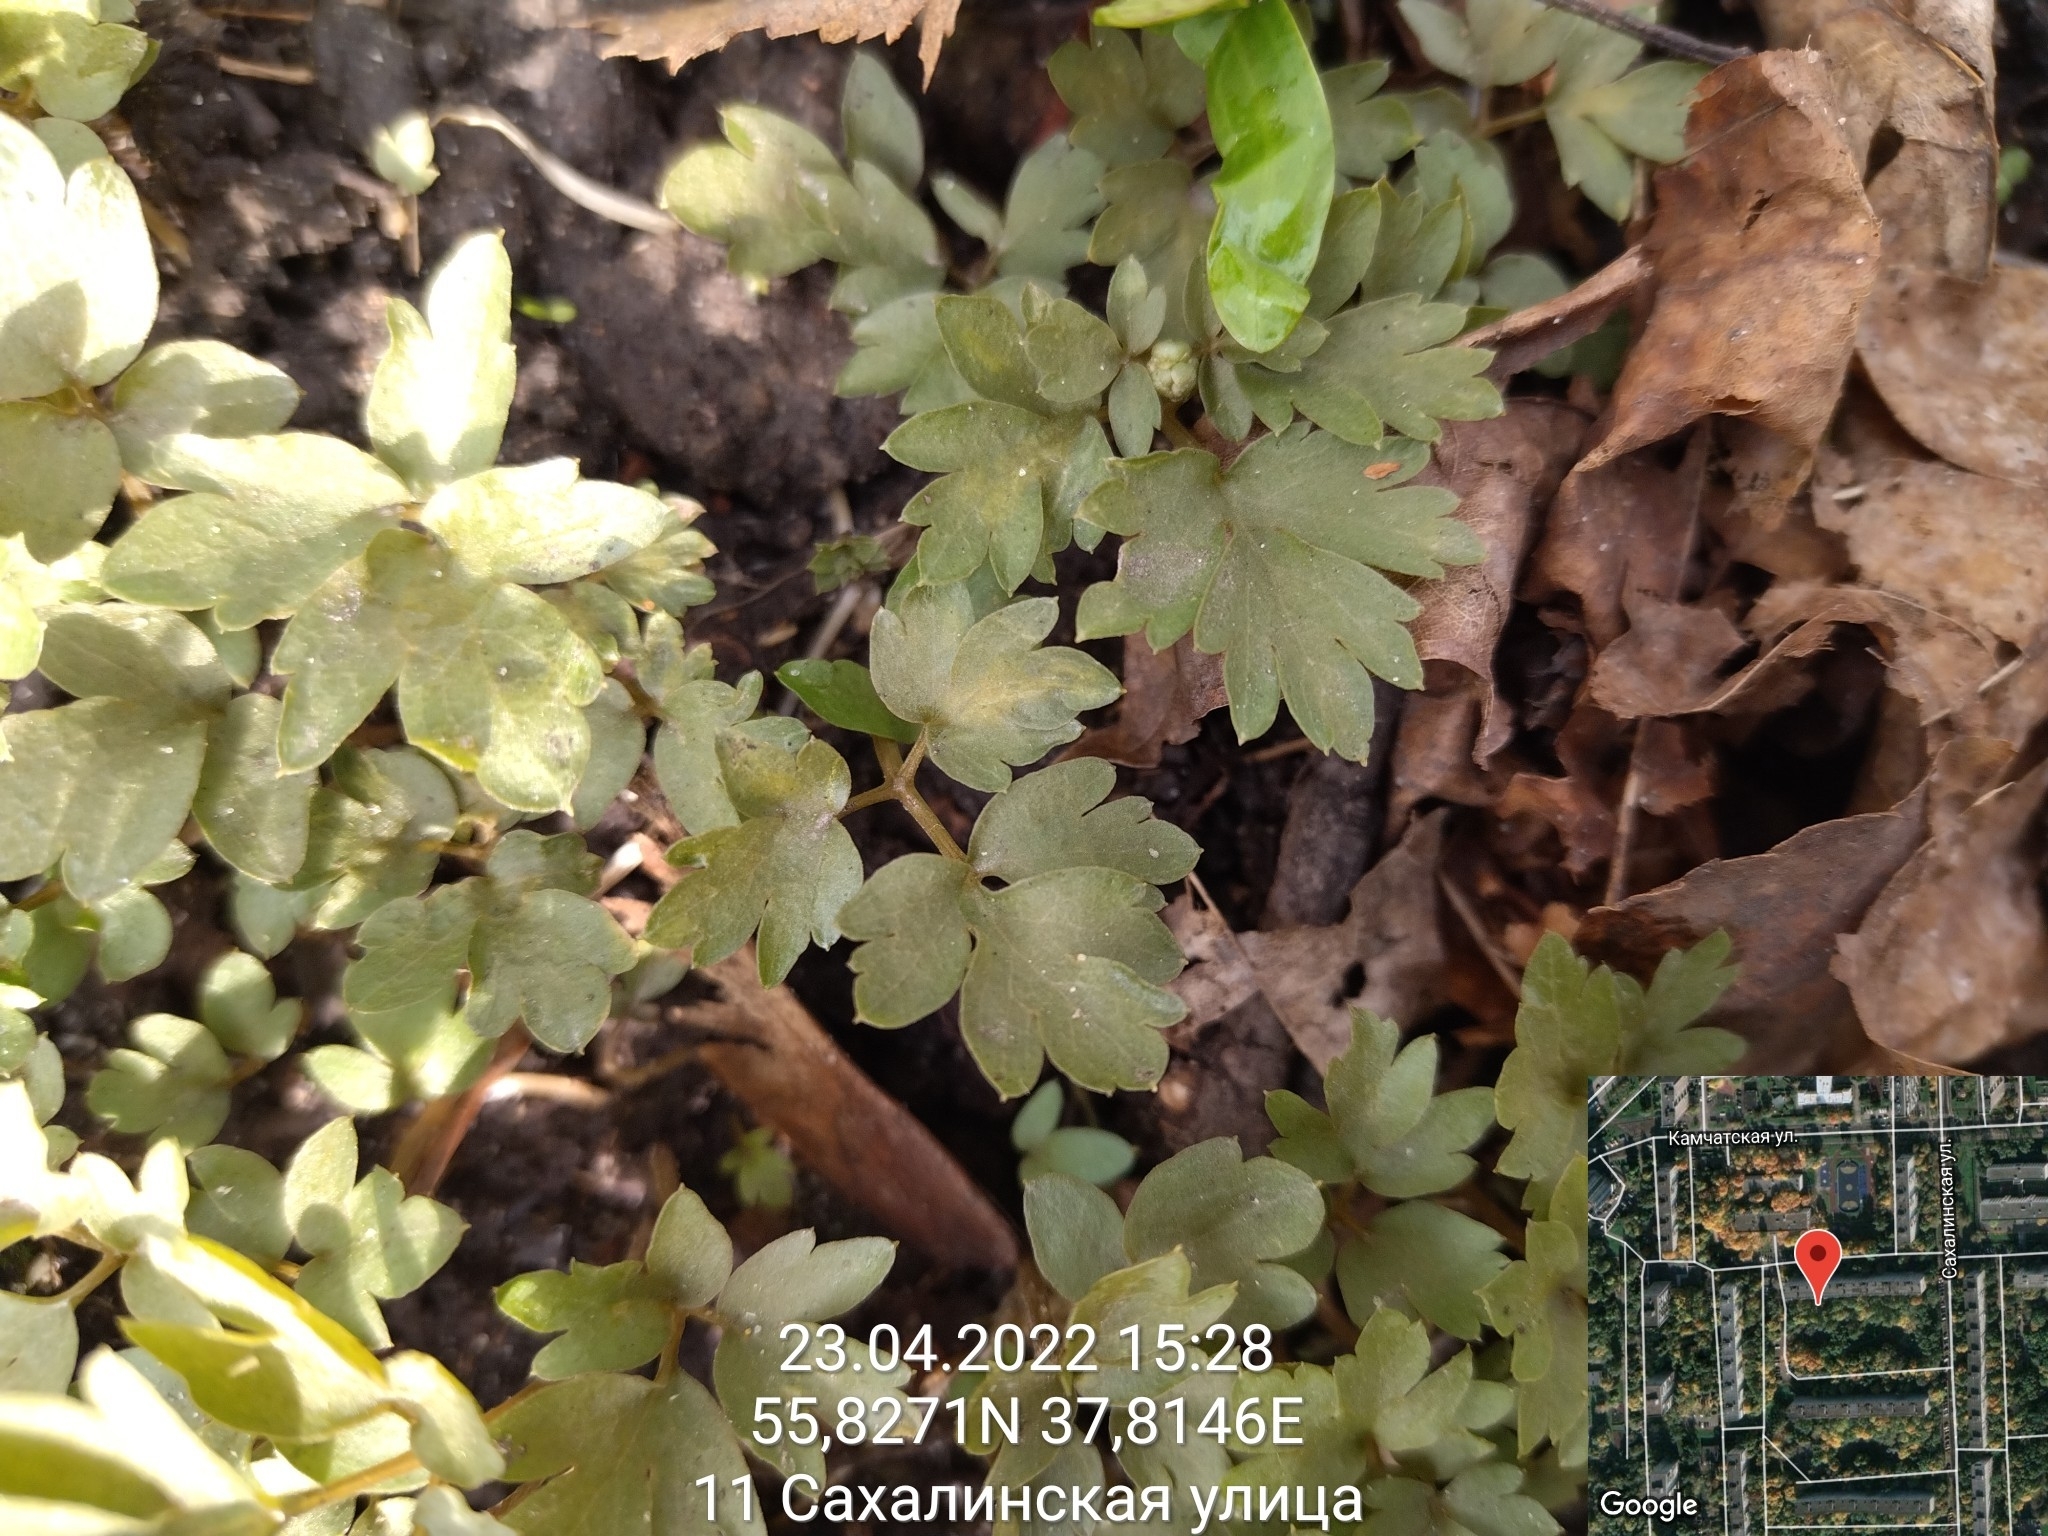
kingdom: Plantae
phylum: Tracheophyta
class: Magnoliopsida
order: Dipsacales
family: Viburnaceae
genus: Adoxa
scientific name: Adoxa moschatellina
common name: Moschatel
